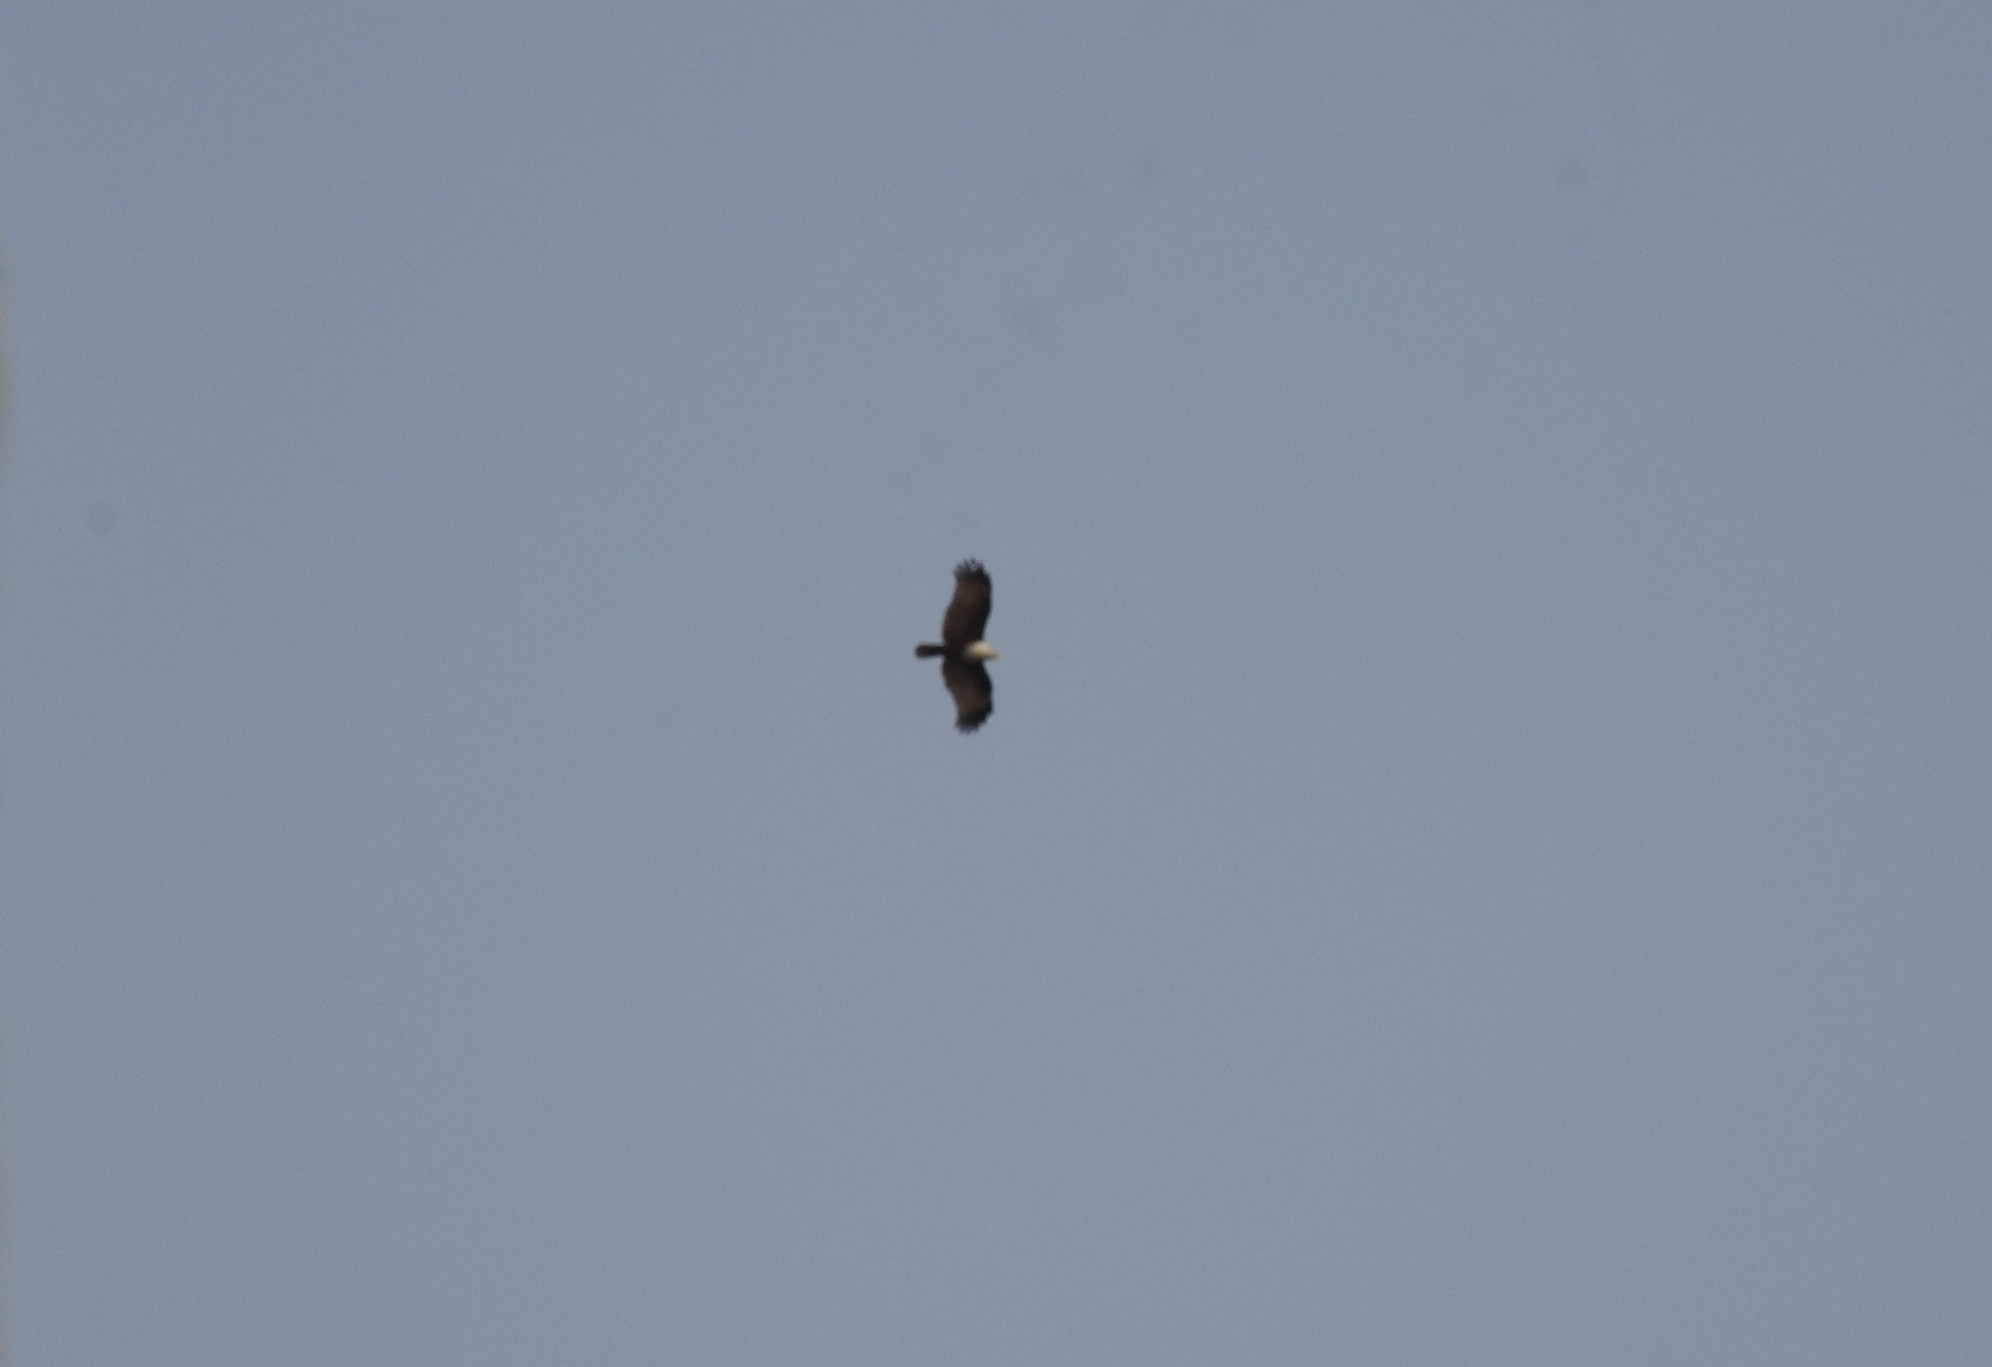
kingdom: Animalia
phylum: Chordata
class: Aves
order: Accipitriformes
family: Accipitridae
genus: Haliastur
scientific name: Haliastur indus
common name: Brahminy kite
